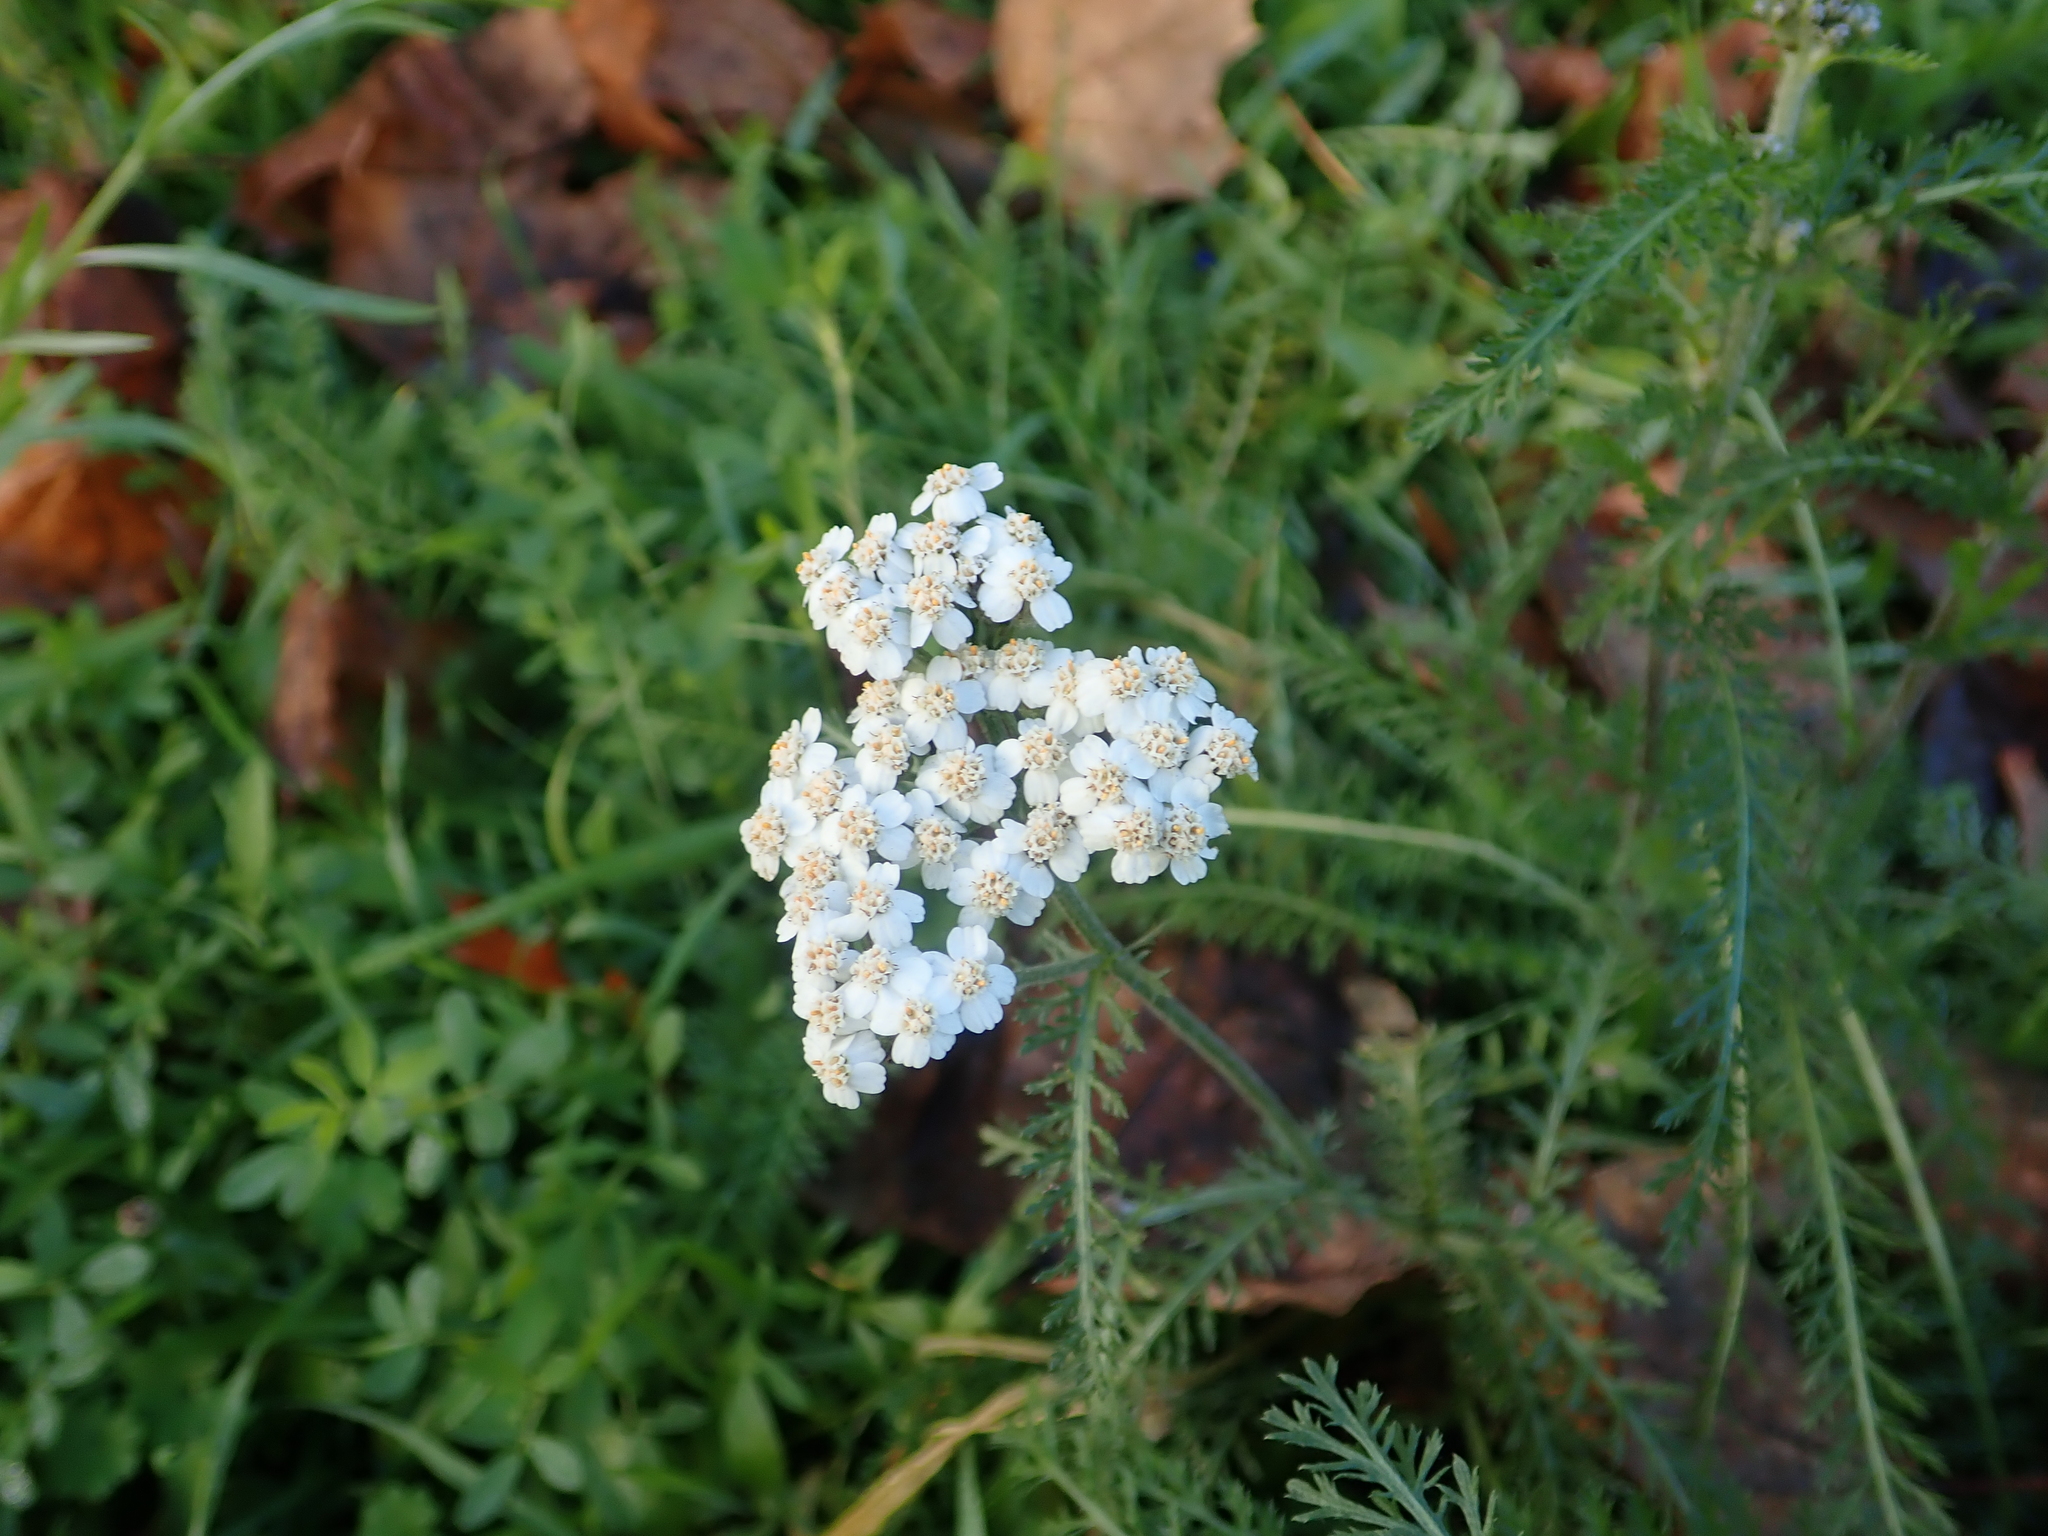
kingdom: Plantae
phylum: Tracheophyta
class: Magnoliopsida
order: Asterales
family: Asteraceae
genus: Achillea
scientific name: Achillea millefolium
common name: Yarrow
